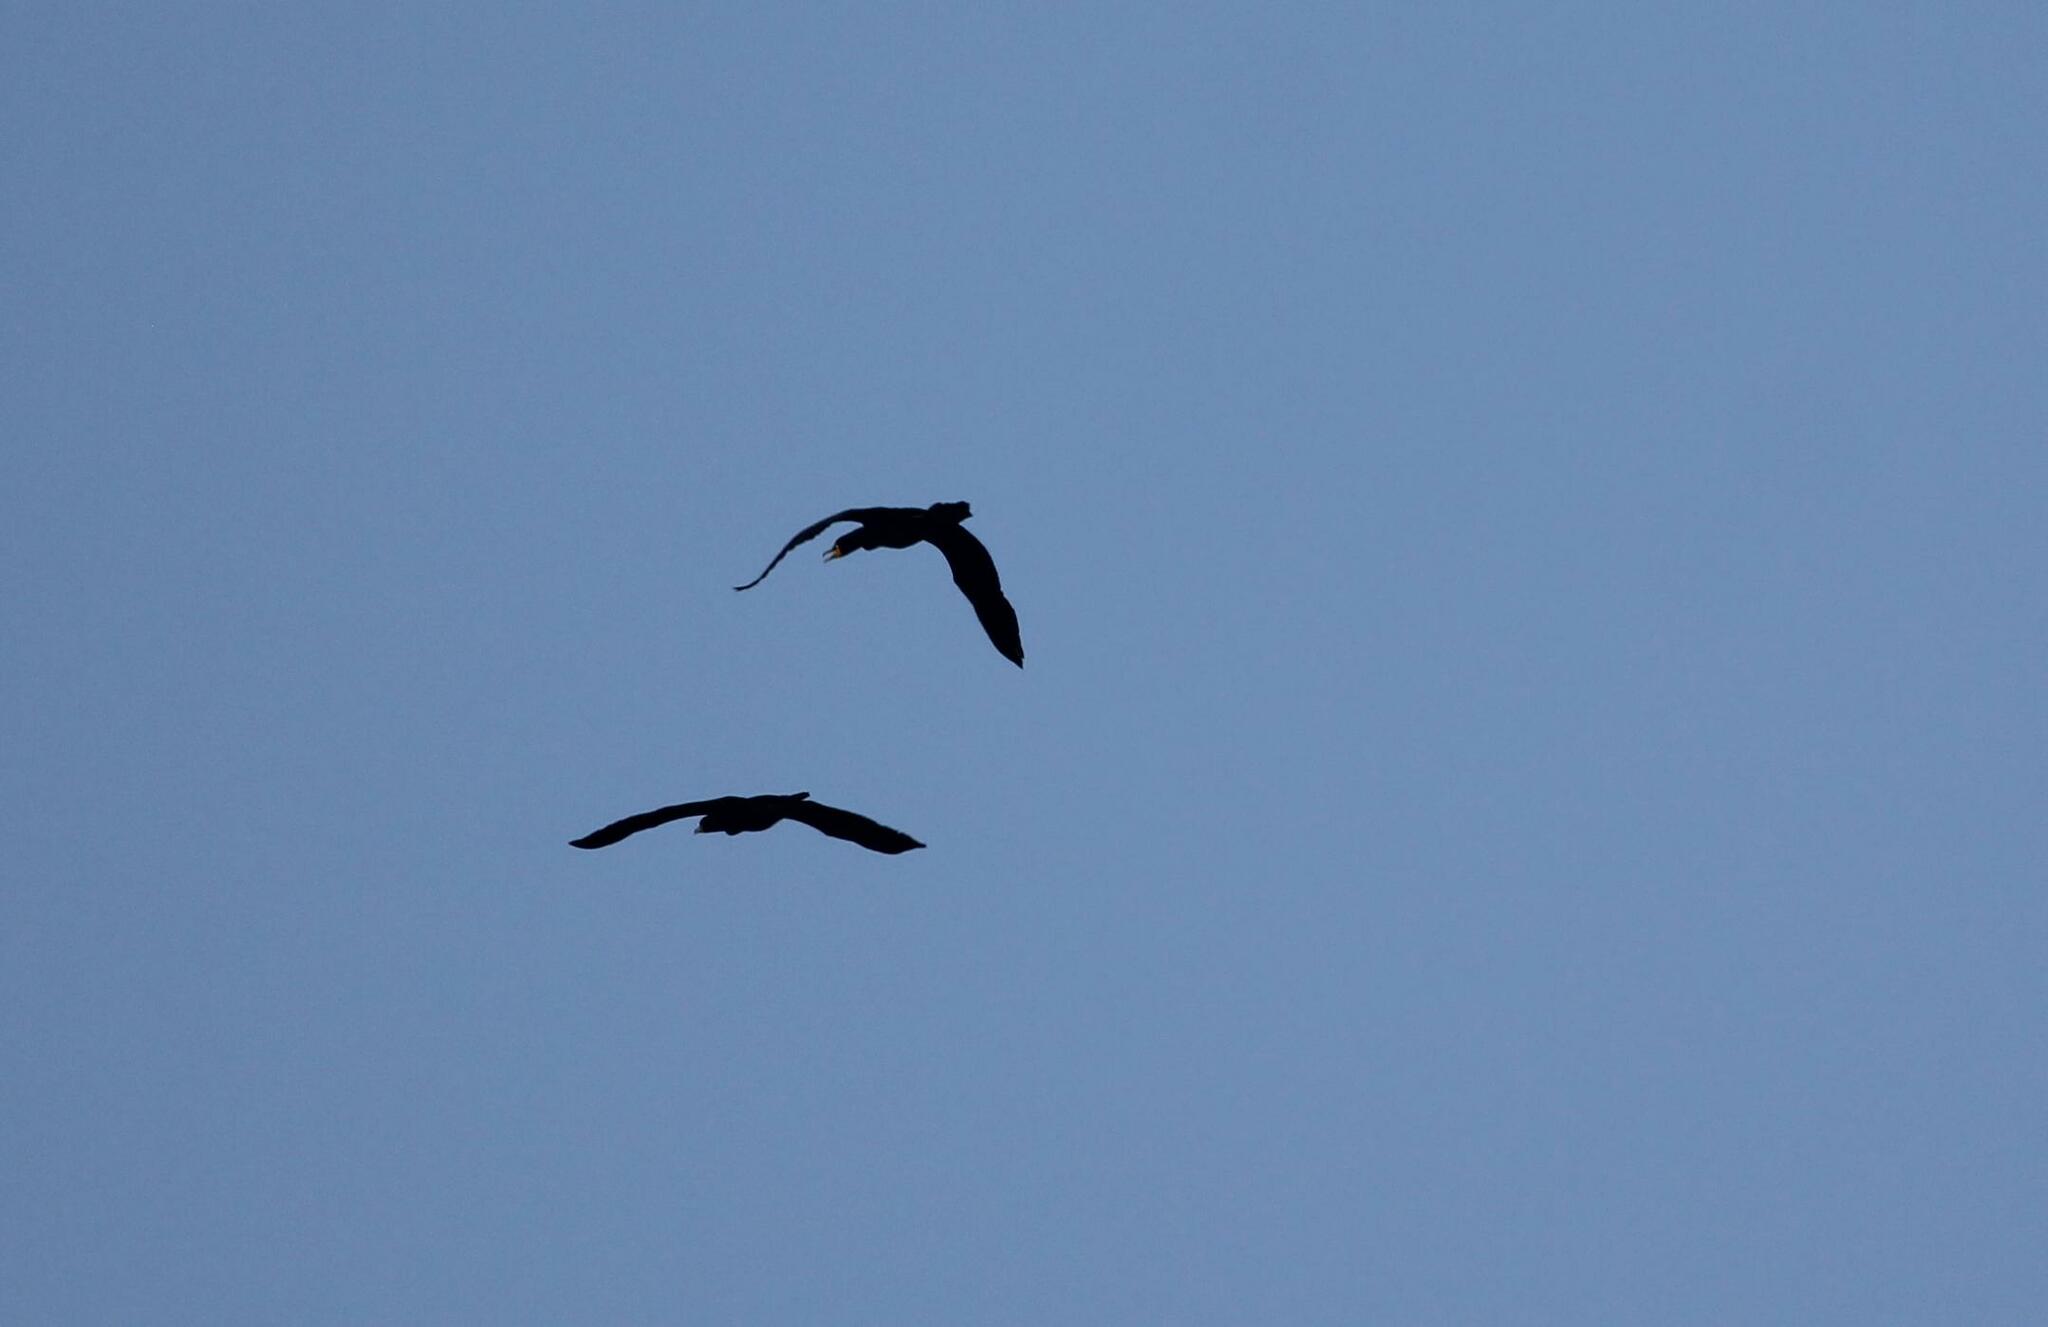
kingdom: Animalia
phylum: Chordata
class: Aves
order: Suliformes
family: Phalacrocoracidae
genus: Phalacrocorax
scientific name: Phalacrocorax auritus
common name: Double-crested cormorant
